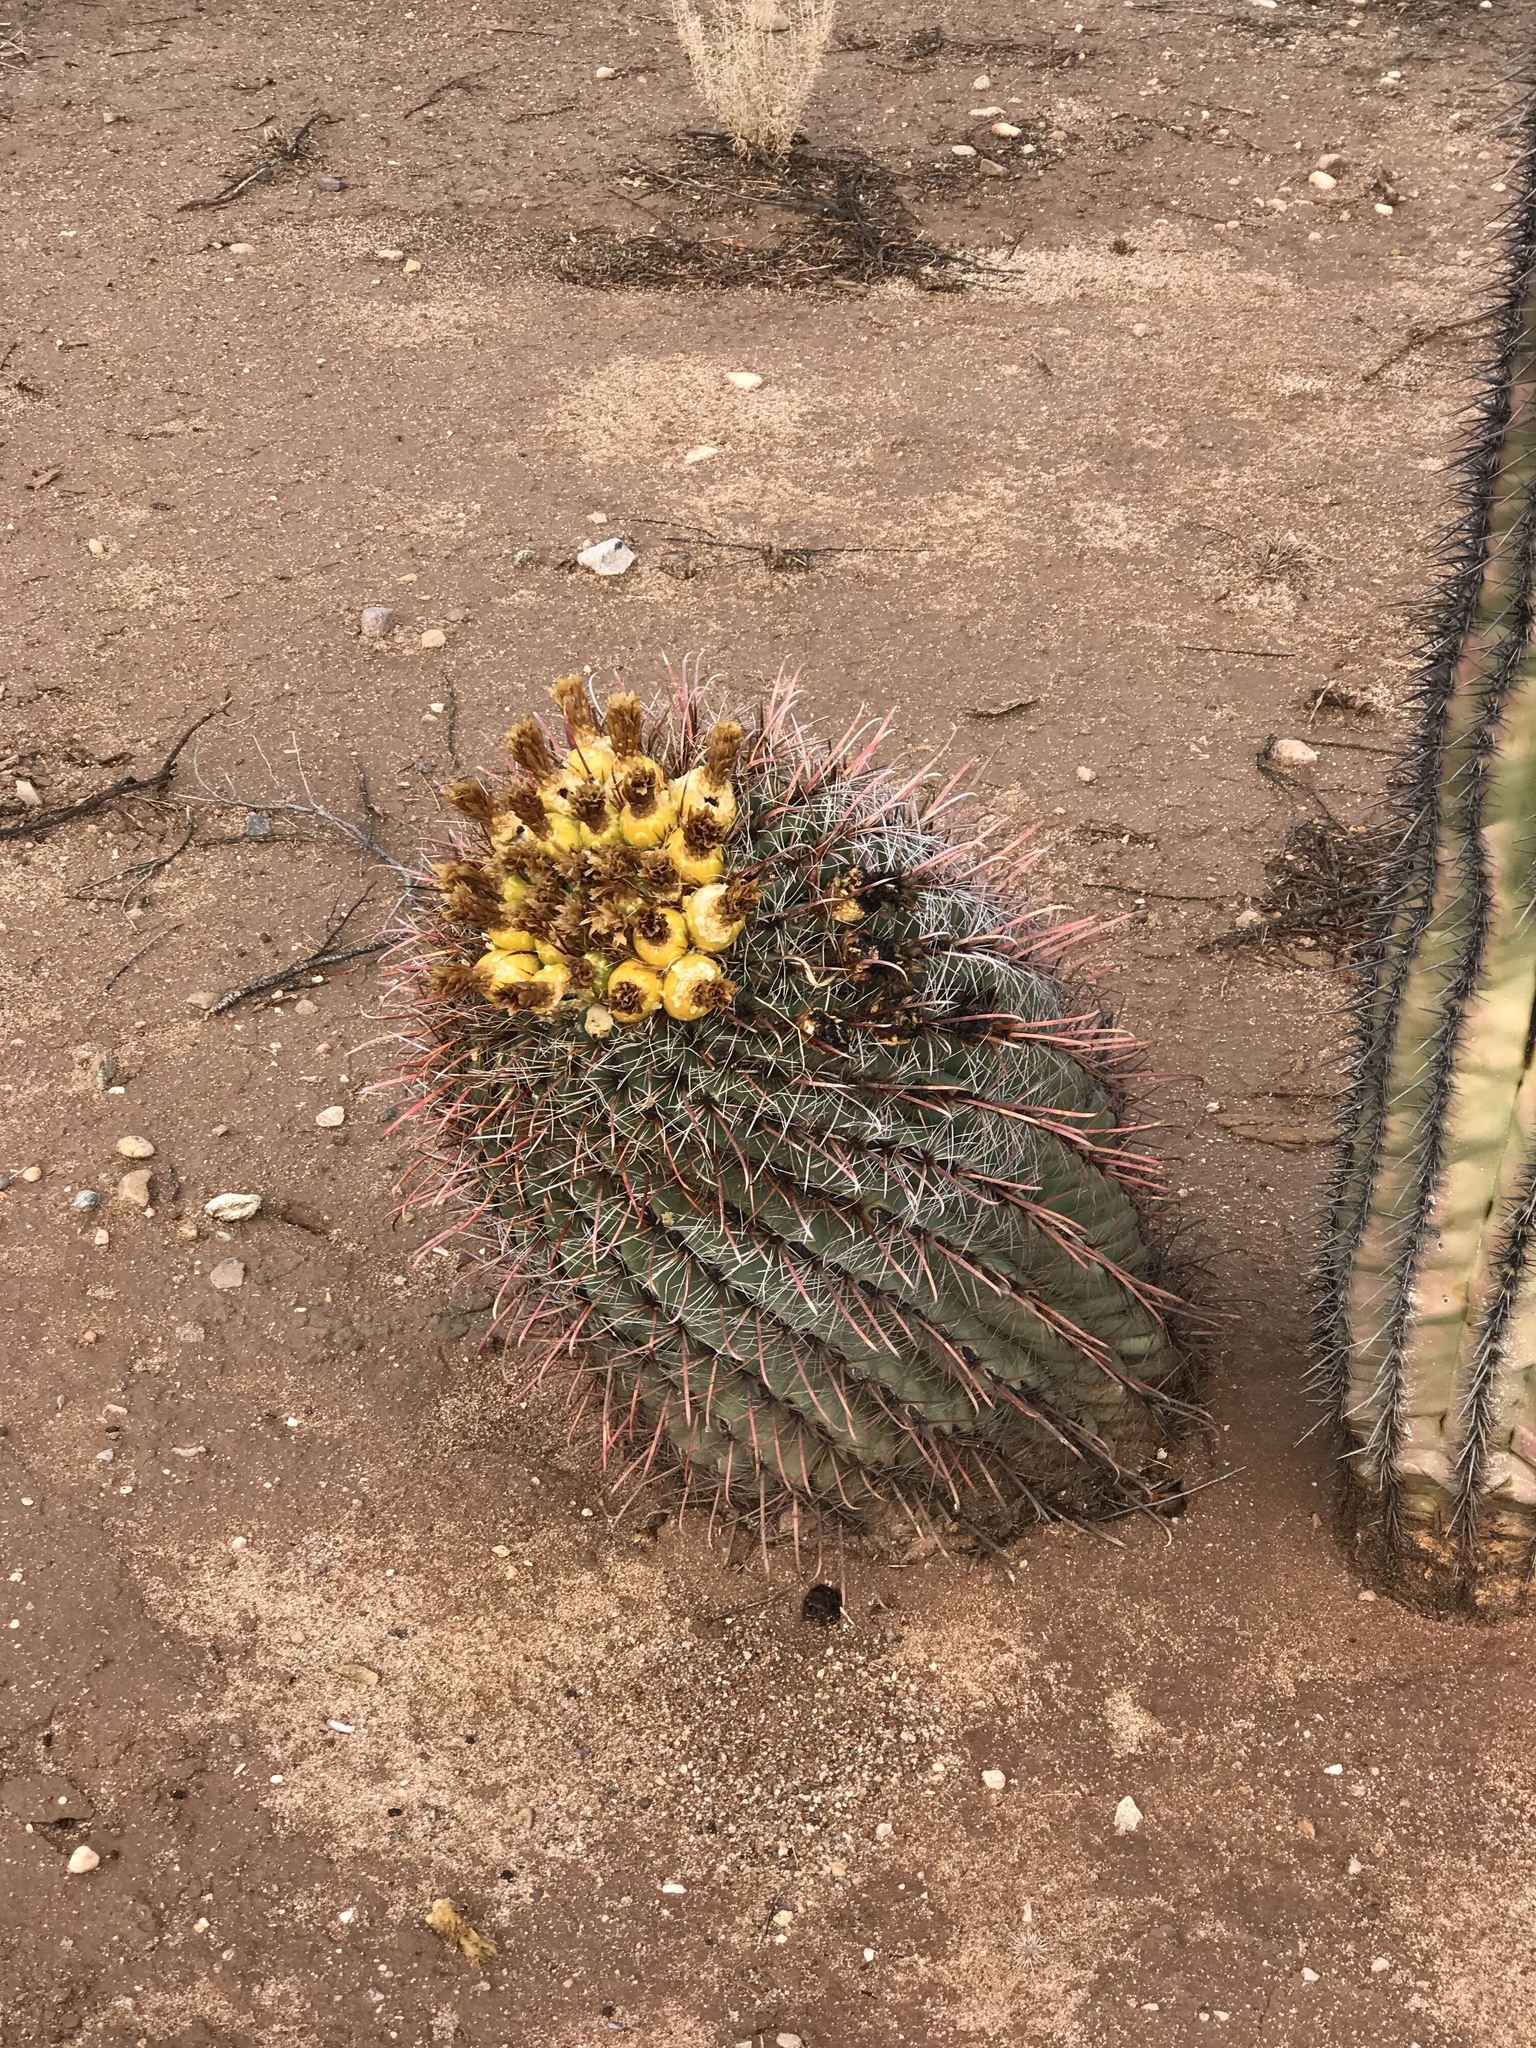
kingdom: Plantae
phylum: Tracheophyta
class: Magnoliopsida
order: Caryophyllales
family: Cactaceae
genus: Ferocactus
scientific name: Ferocactus wislizeni
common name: Candy barrel cactus
